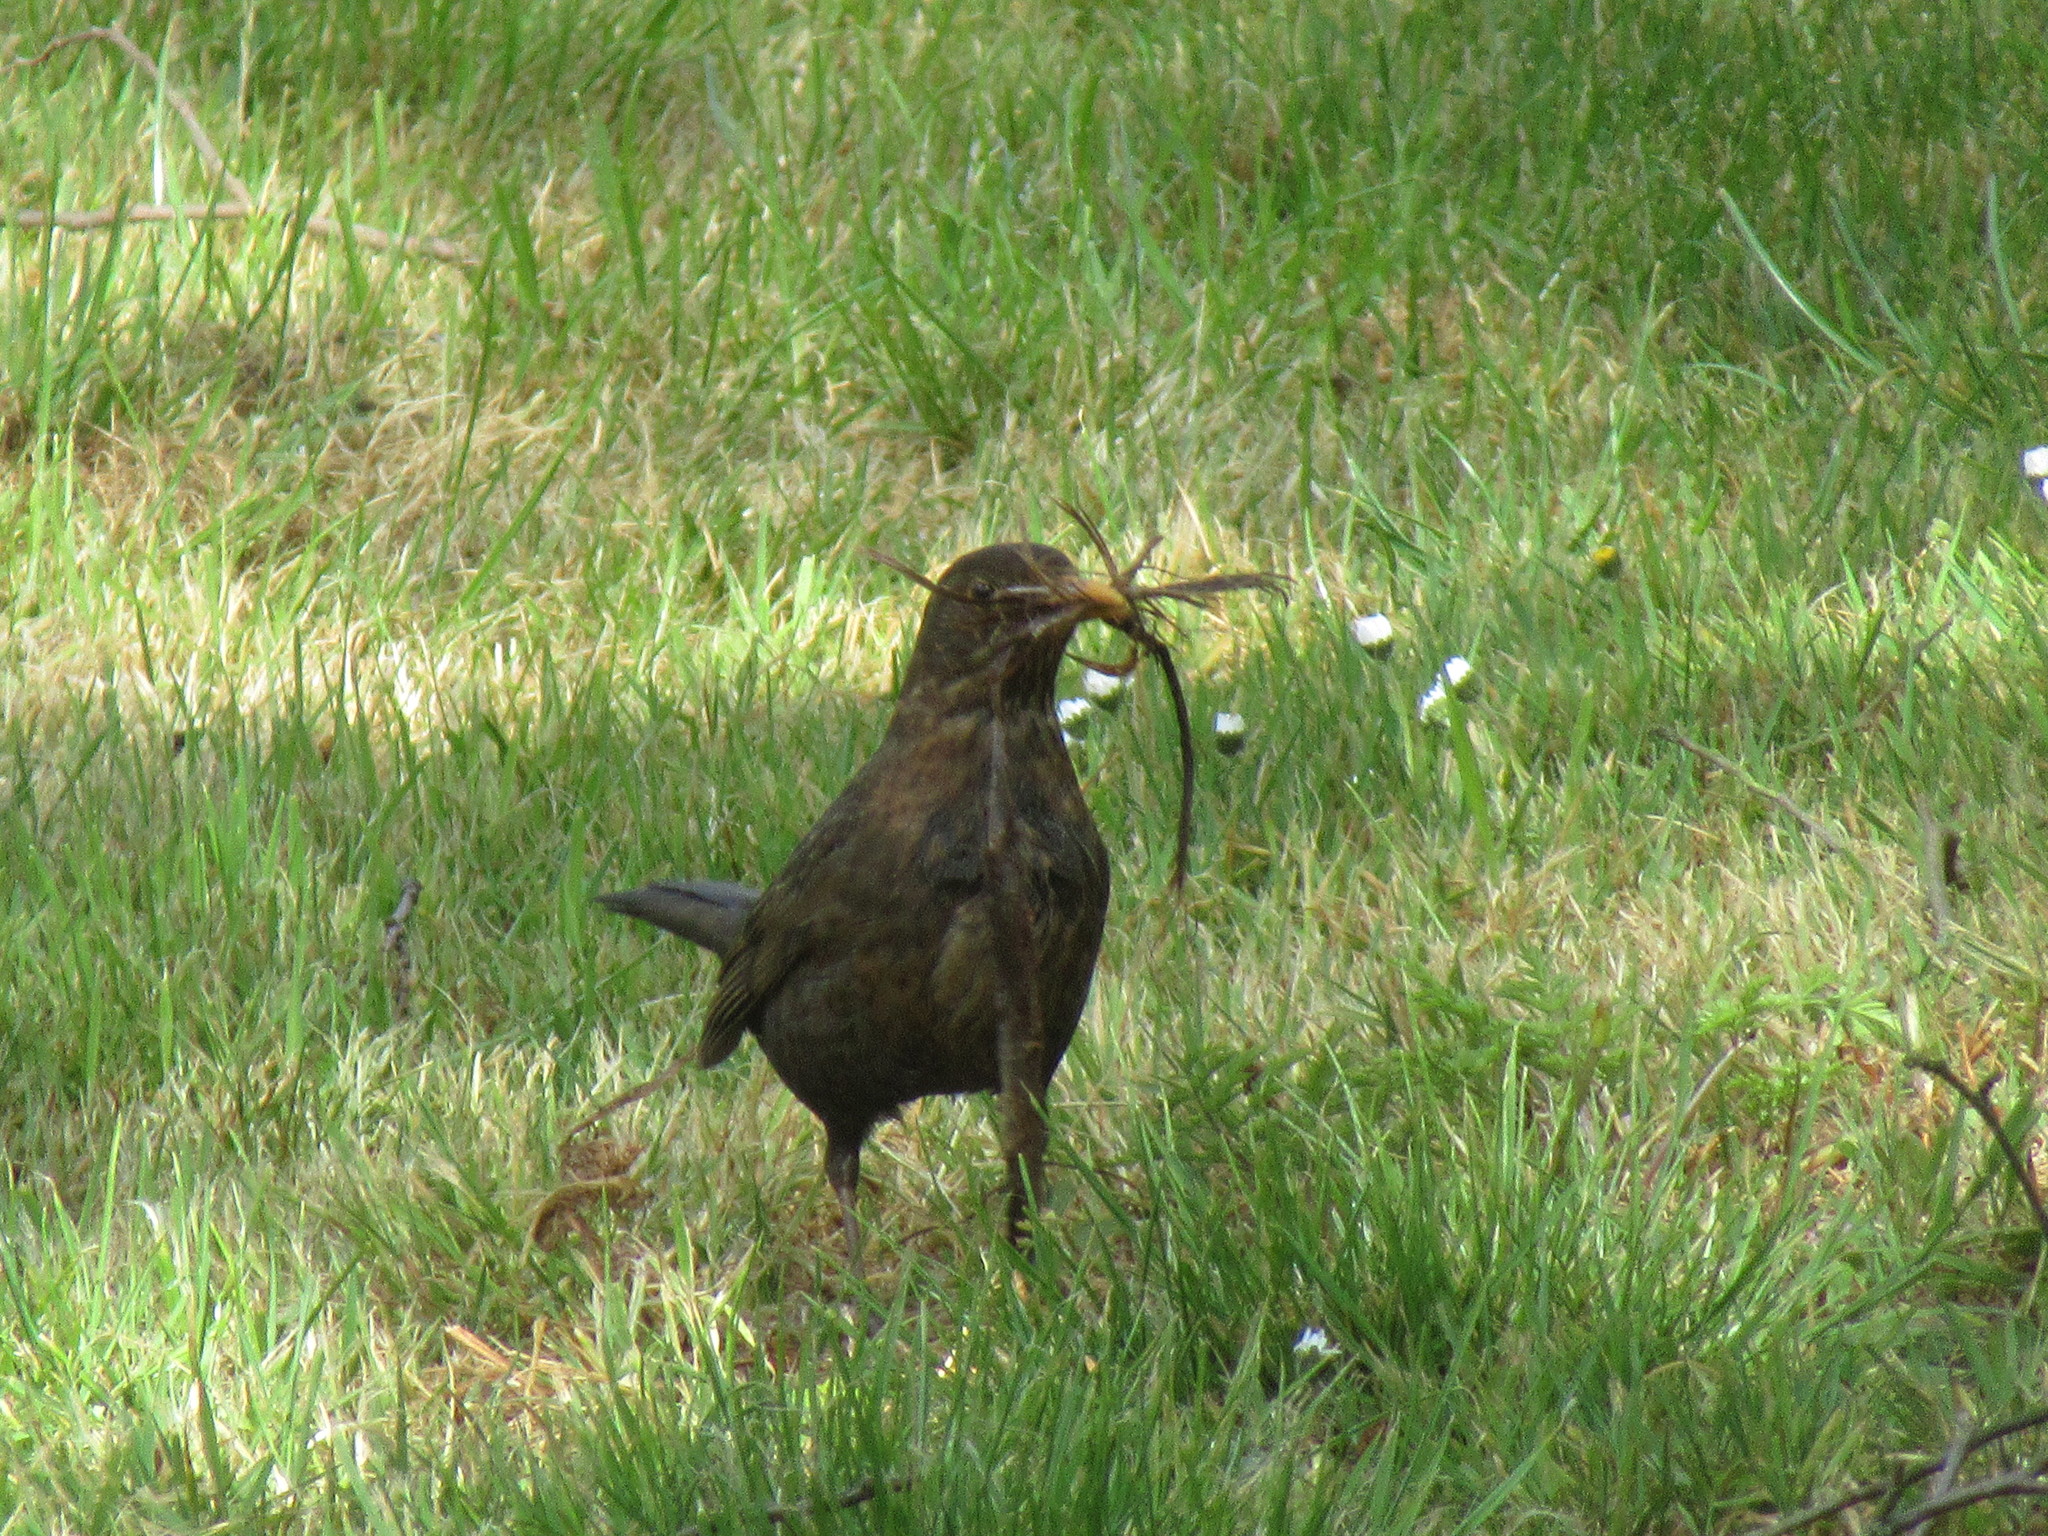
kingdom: Animalia
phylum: Chordata
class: Aves
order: Passeriformes
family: Turdidae
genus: Turdus
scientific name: Turdus merula
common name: Common blackbird
